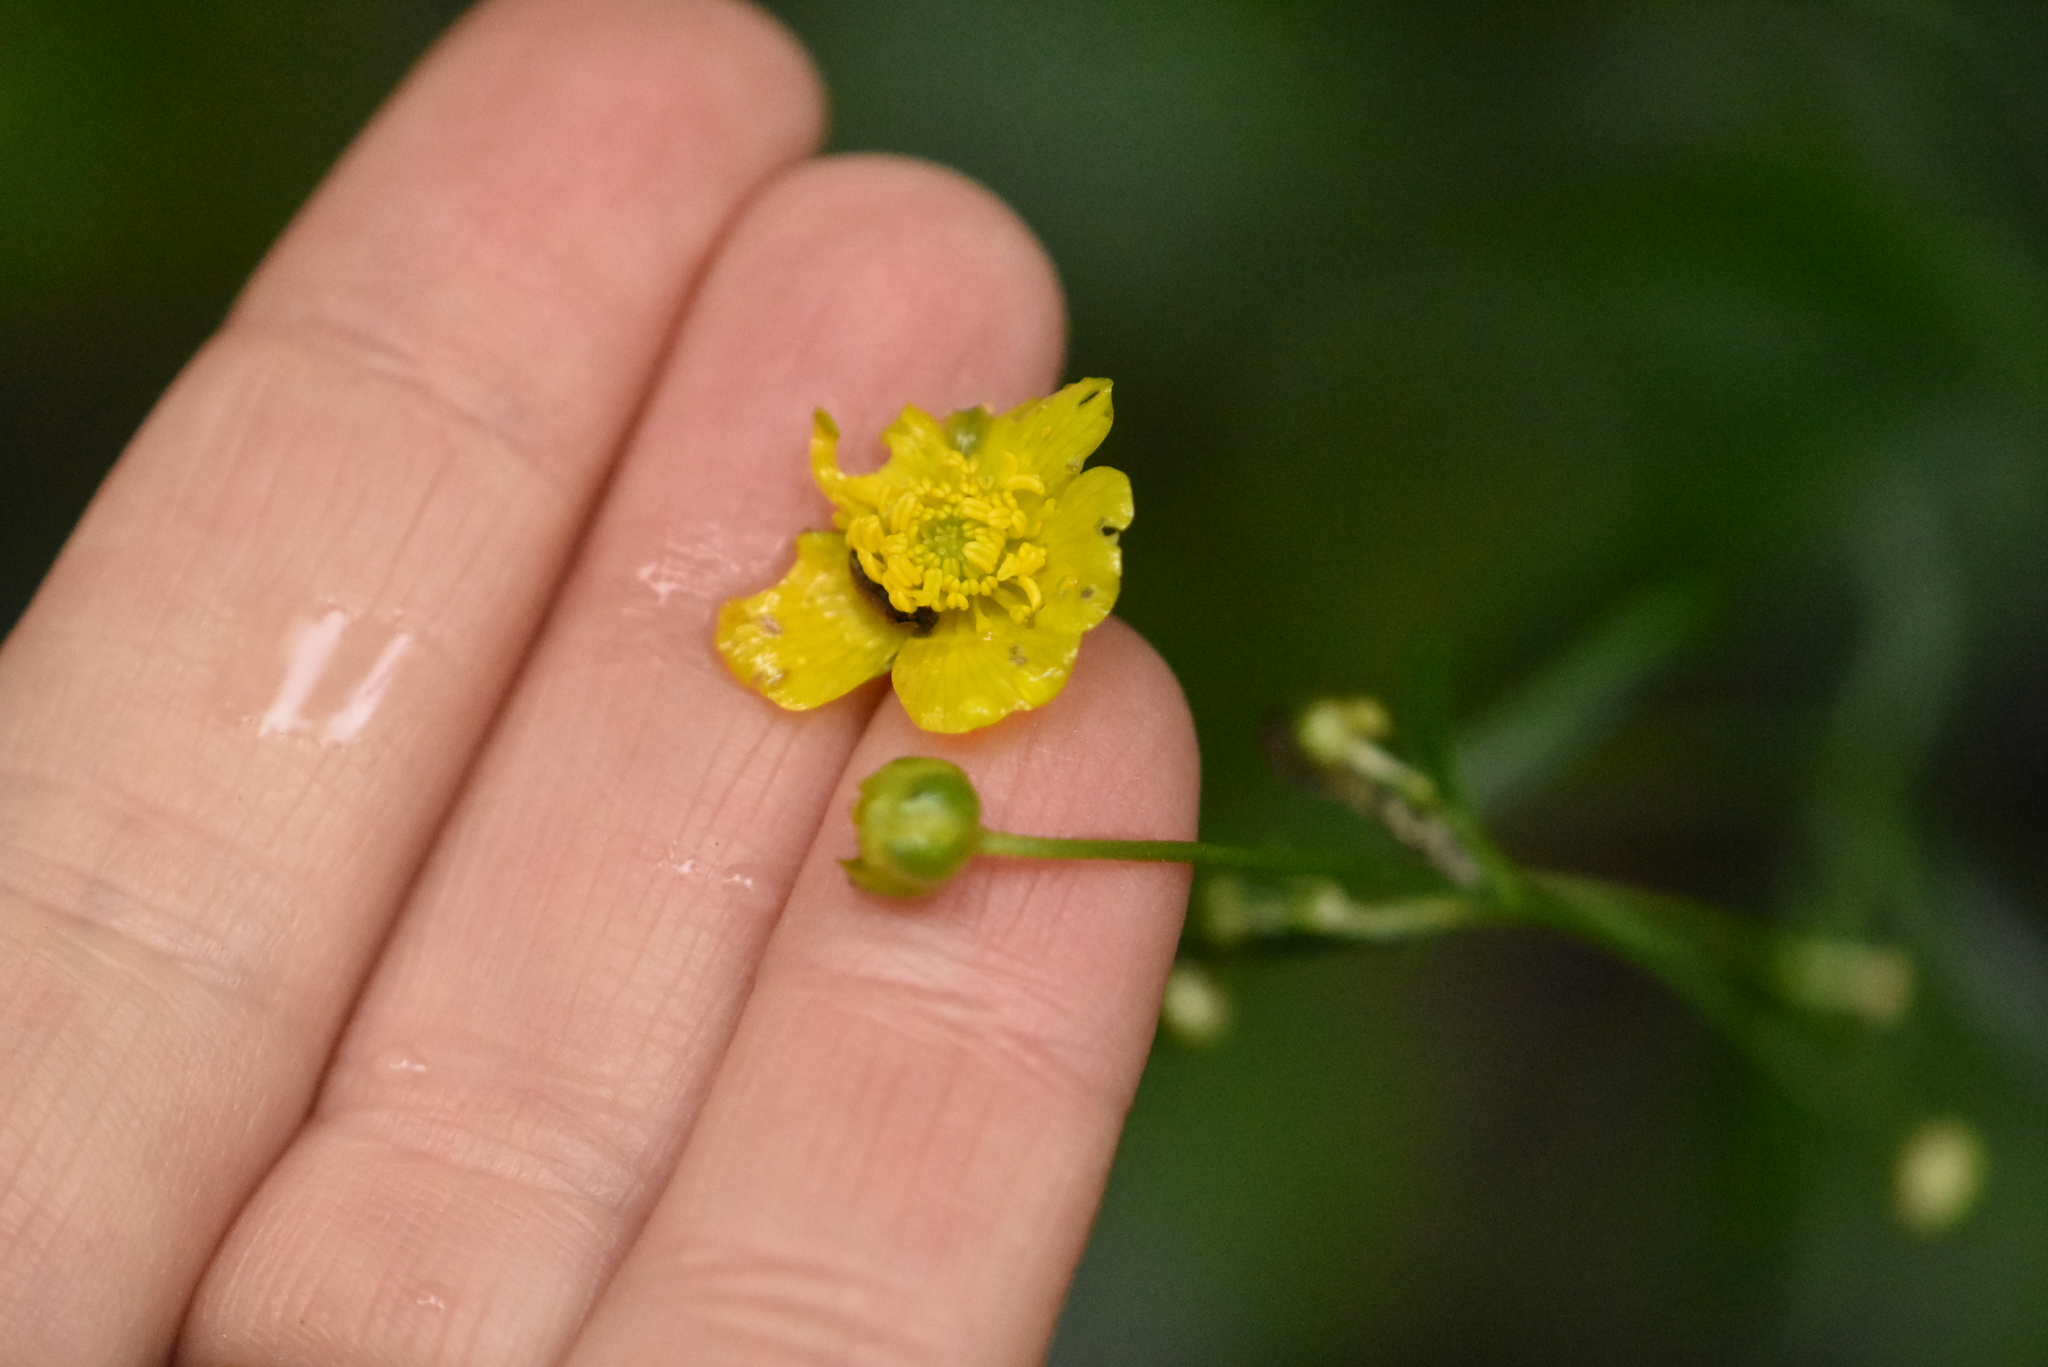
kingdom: Plantae
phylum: Tracheophyta
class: Magnoliopsida
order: Ranunculales
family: Ranunculaceae
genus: Ranunculus
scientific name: Ranunculus acris
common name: Meadow buttercup
